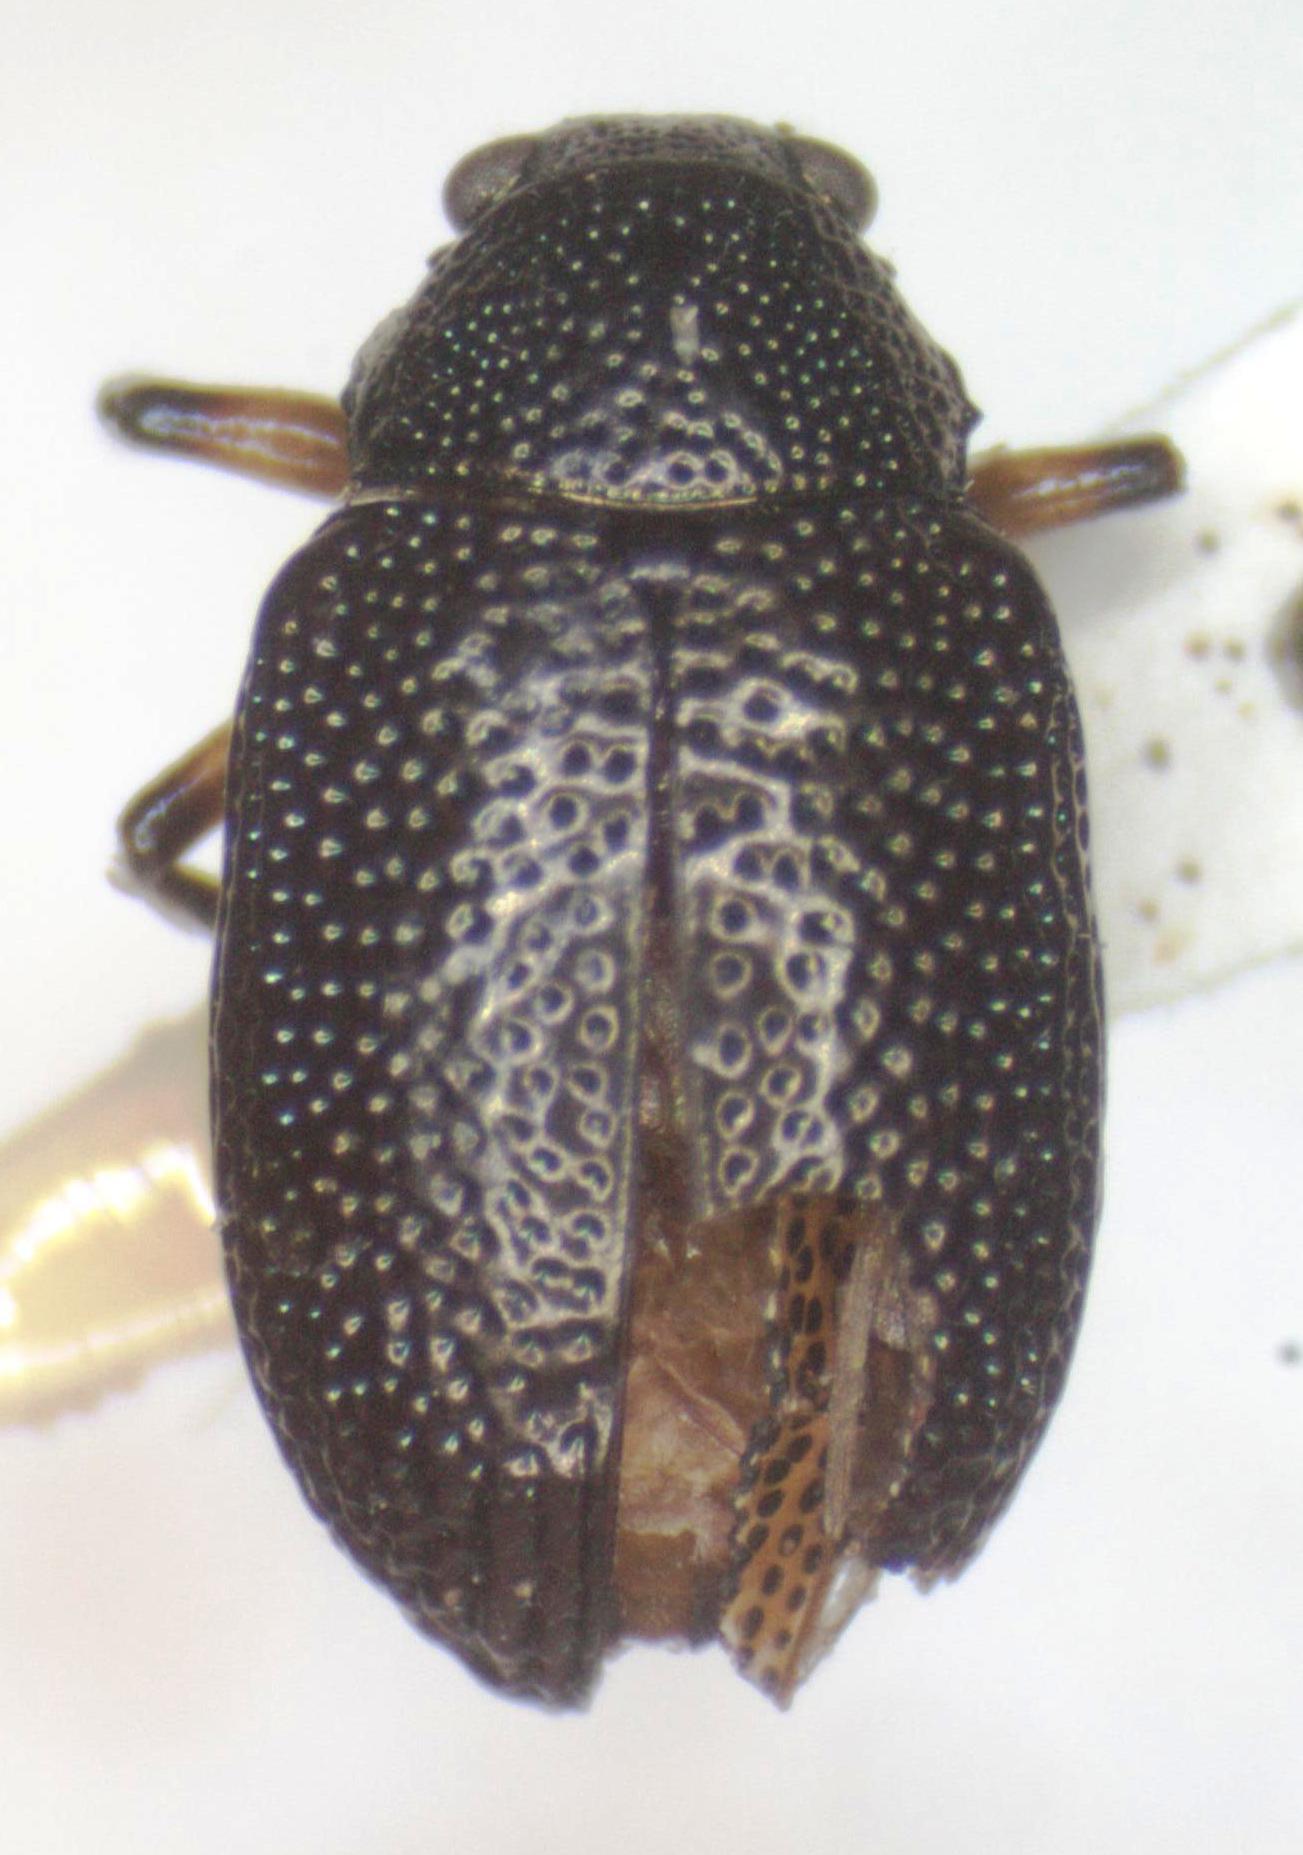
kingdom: Animalia
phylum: Arthropoda
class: Insecta
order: Coleoptera
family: Chrysomelidae
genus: Nodocolaspis
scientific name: Nodocolaspis
